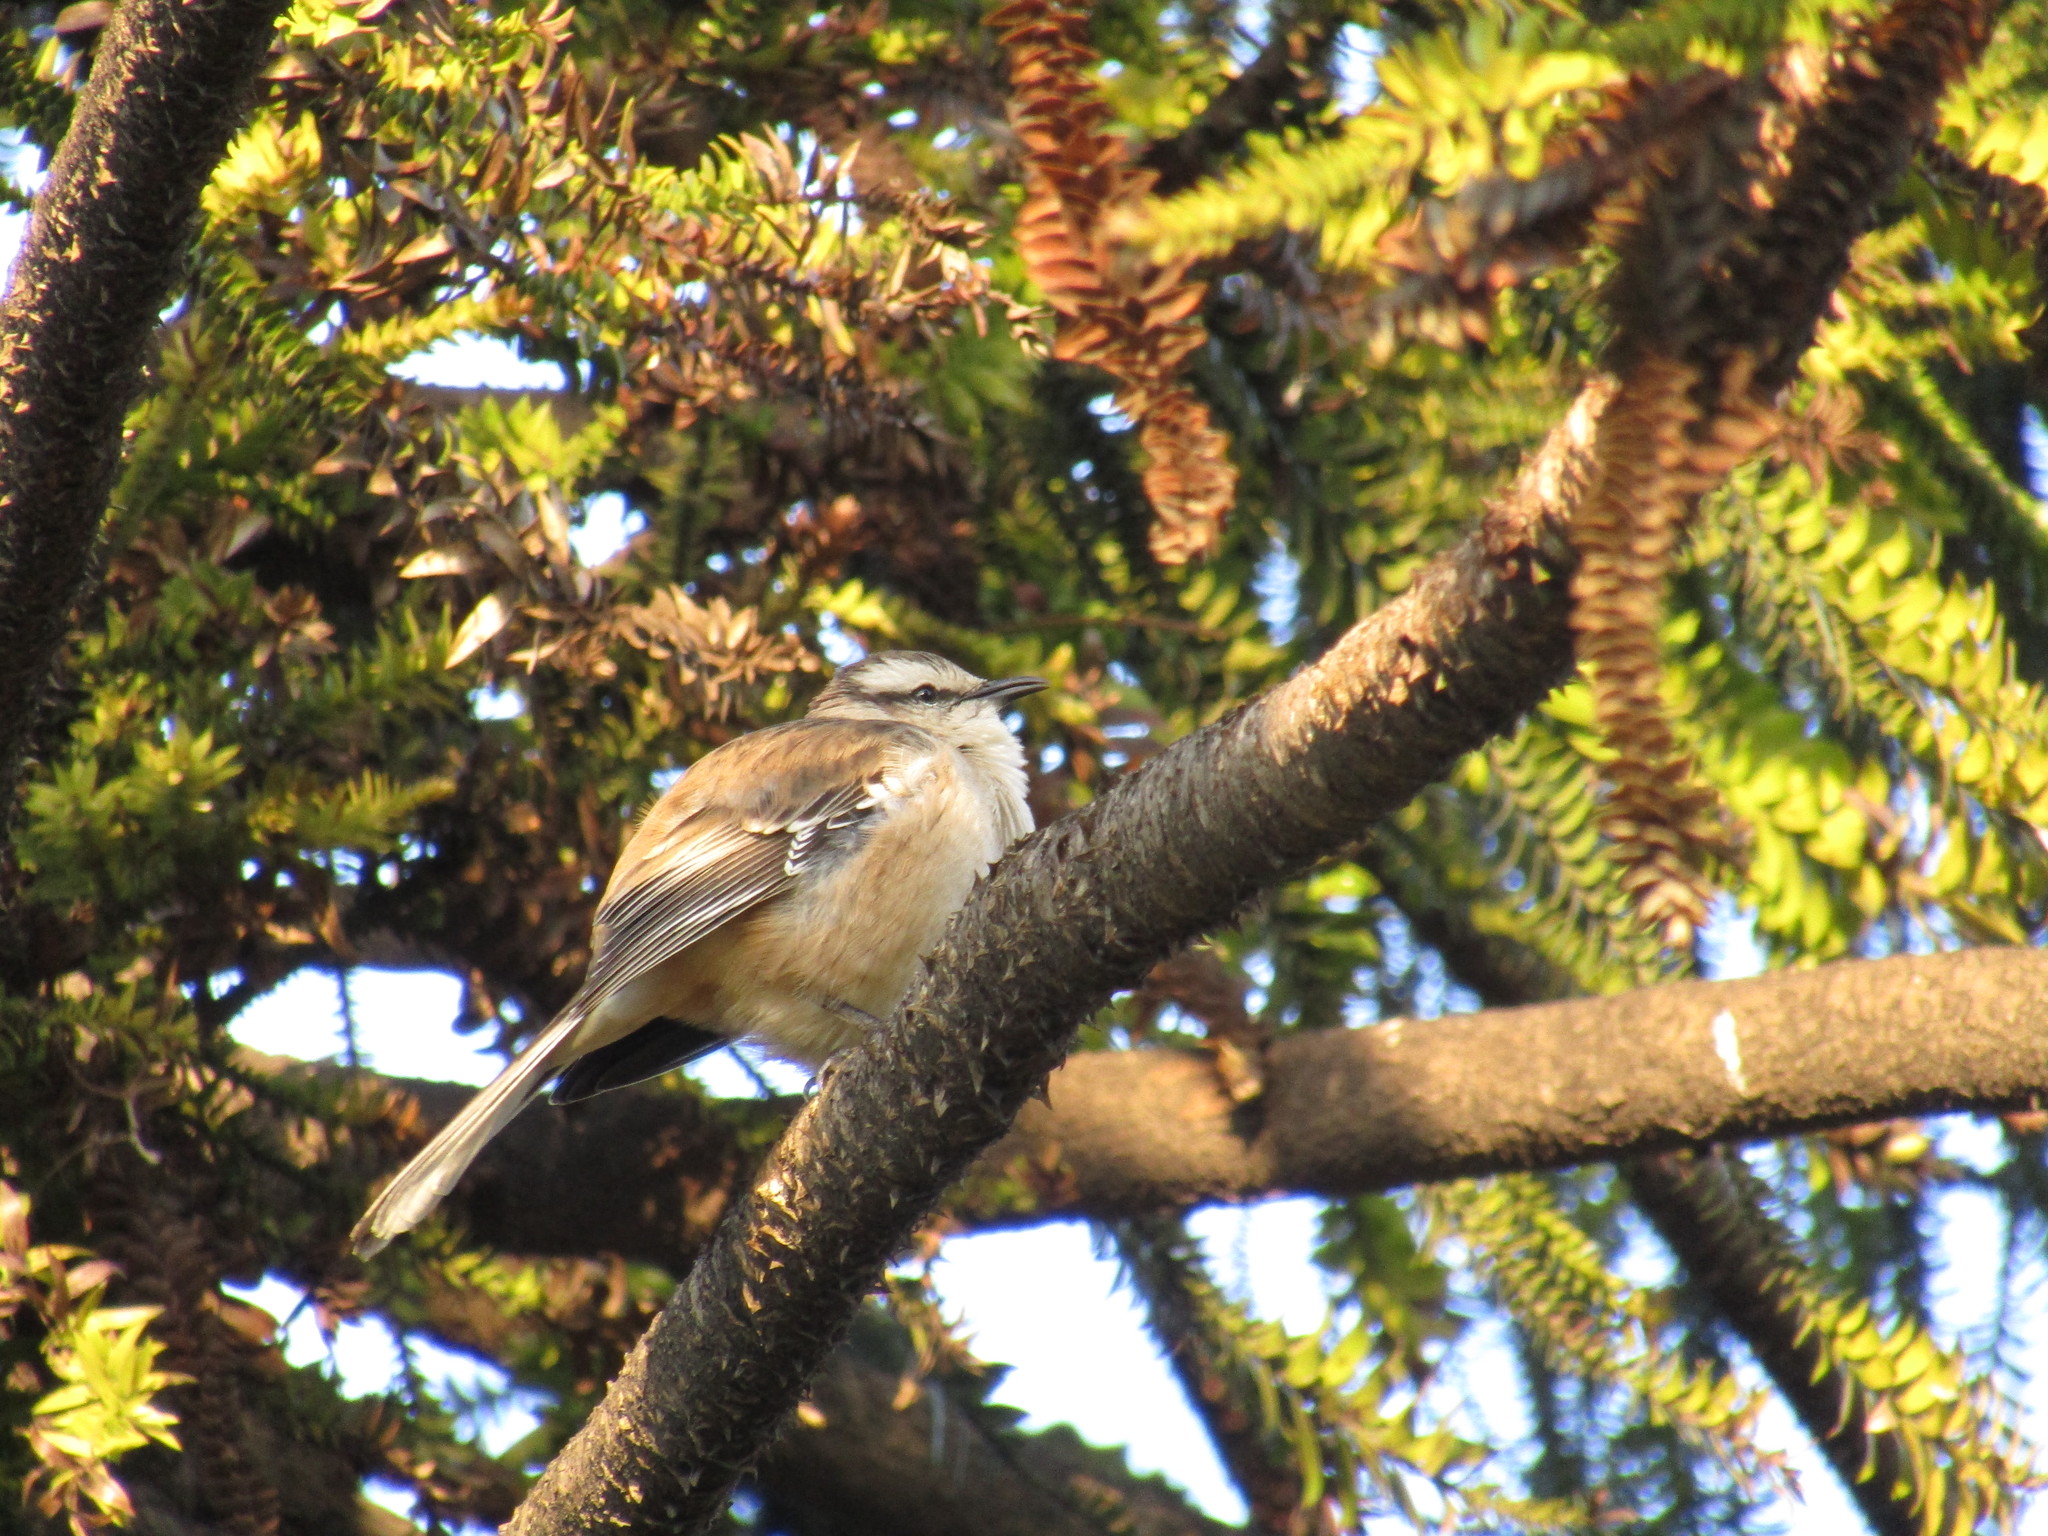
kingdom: Animalia
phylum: Chordata
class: Aves
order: Passeriformes
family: Mimidae
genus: Mimus
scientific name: Mimus saturninus
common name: Chalk-browed mockingbird
